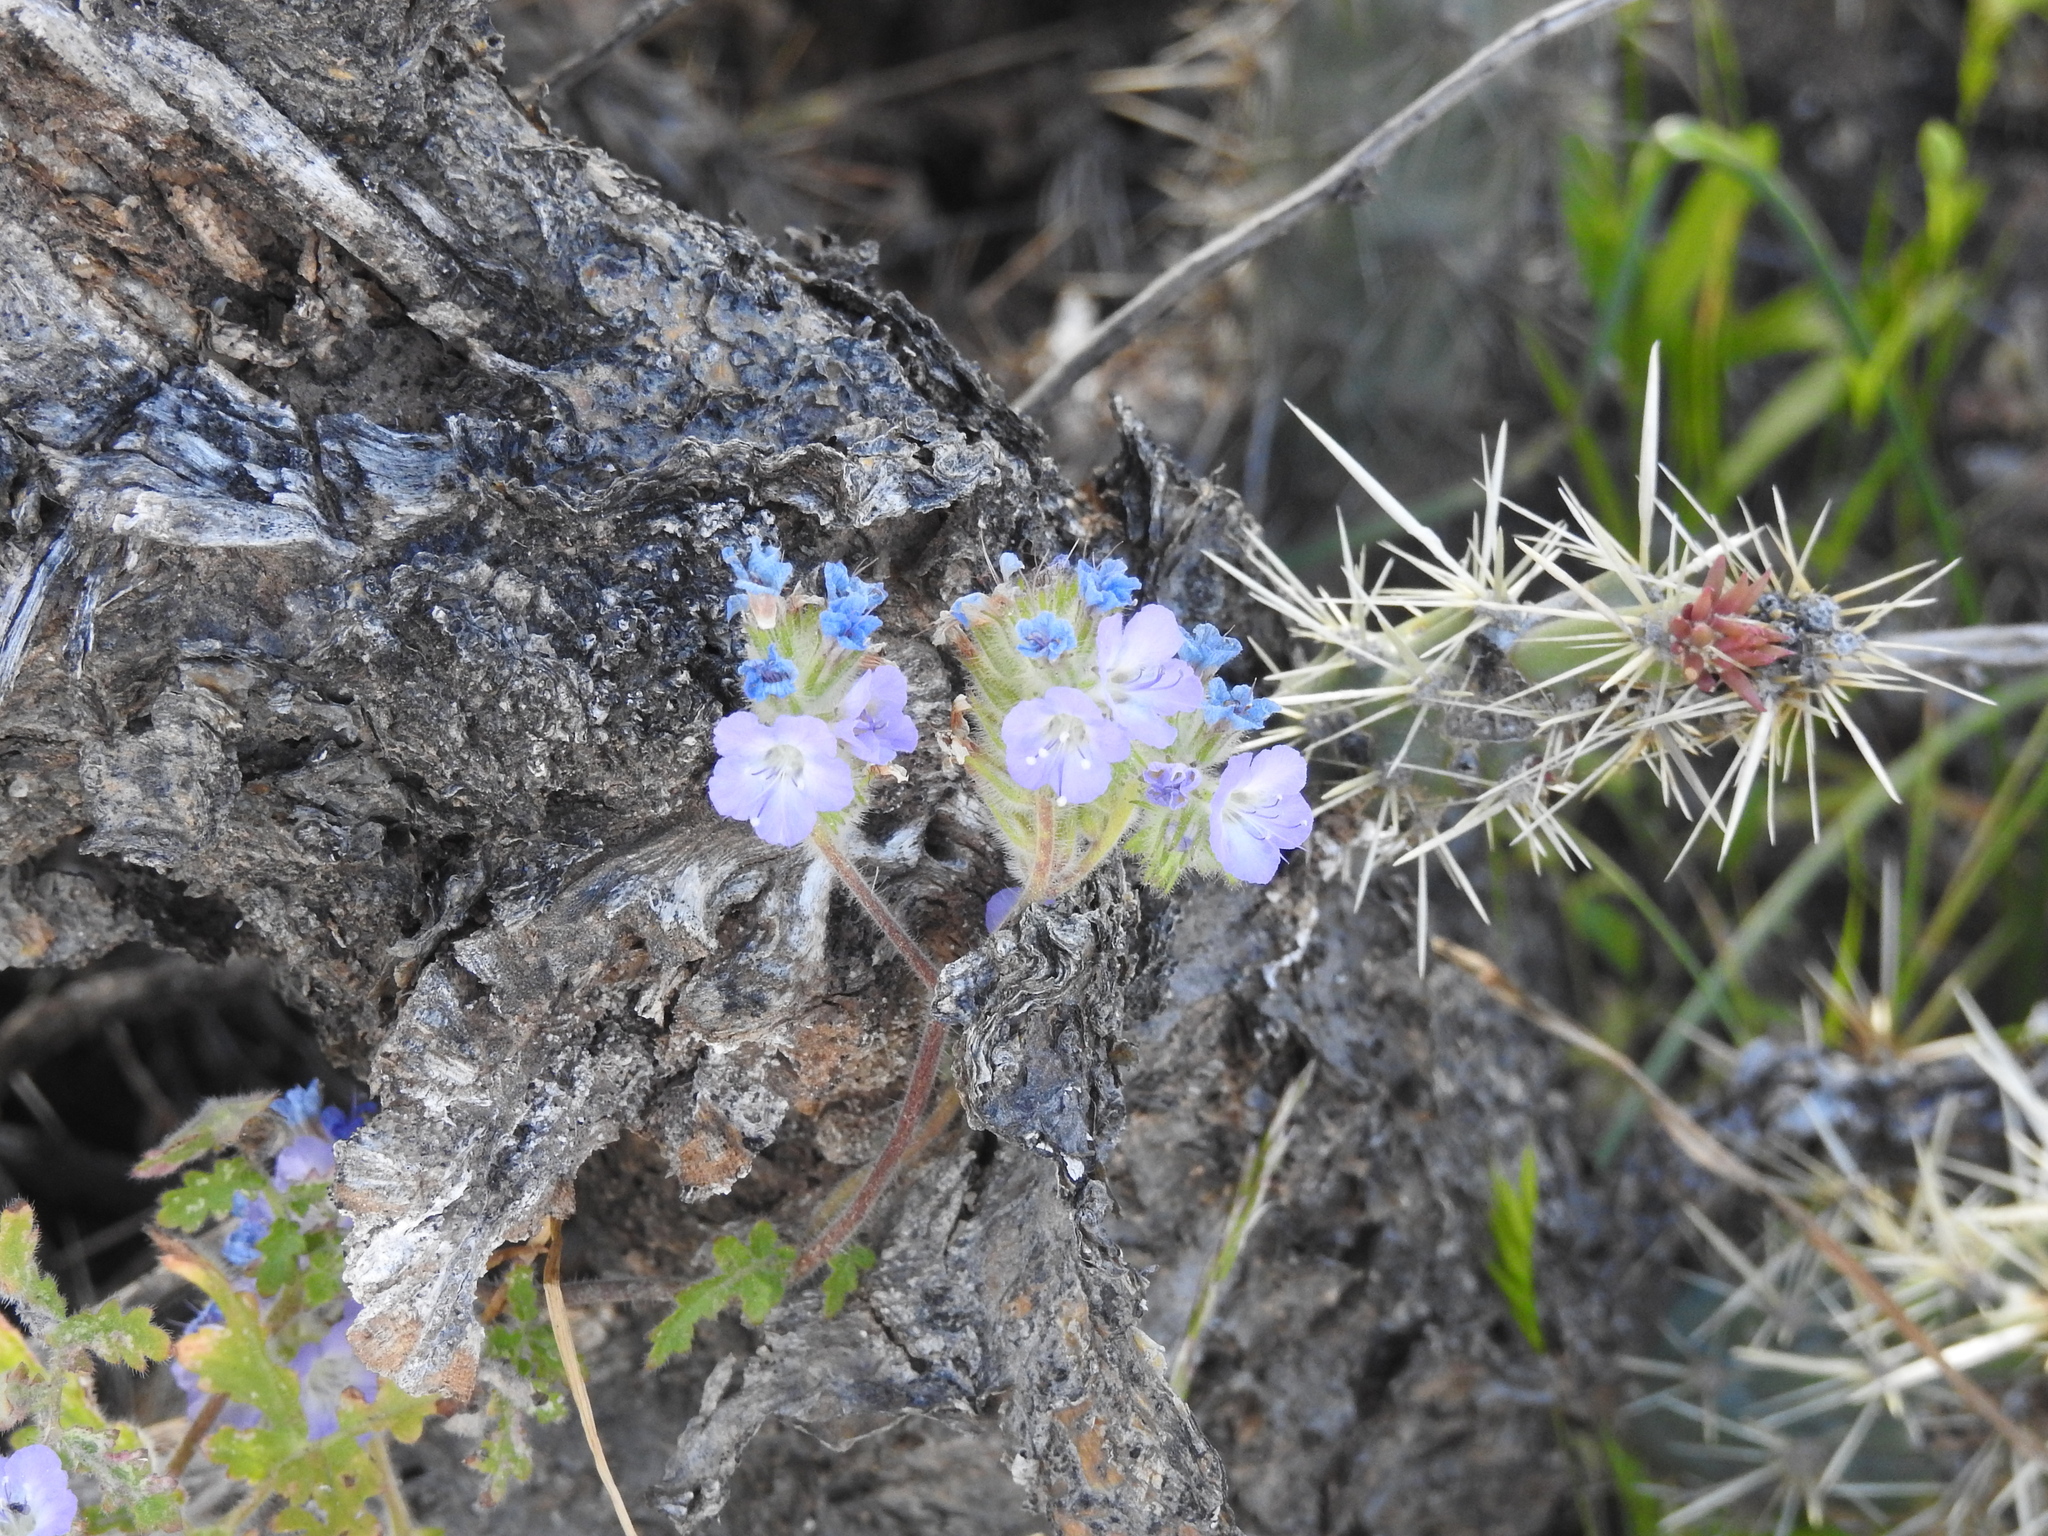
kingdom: Plantae
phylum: Tracheophyta
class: Magnoliopsida
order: Boraginales
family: Hydrophyllaceae
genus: Phacelia
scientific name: Phacelia distans
